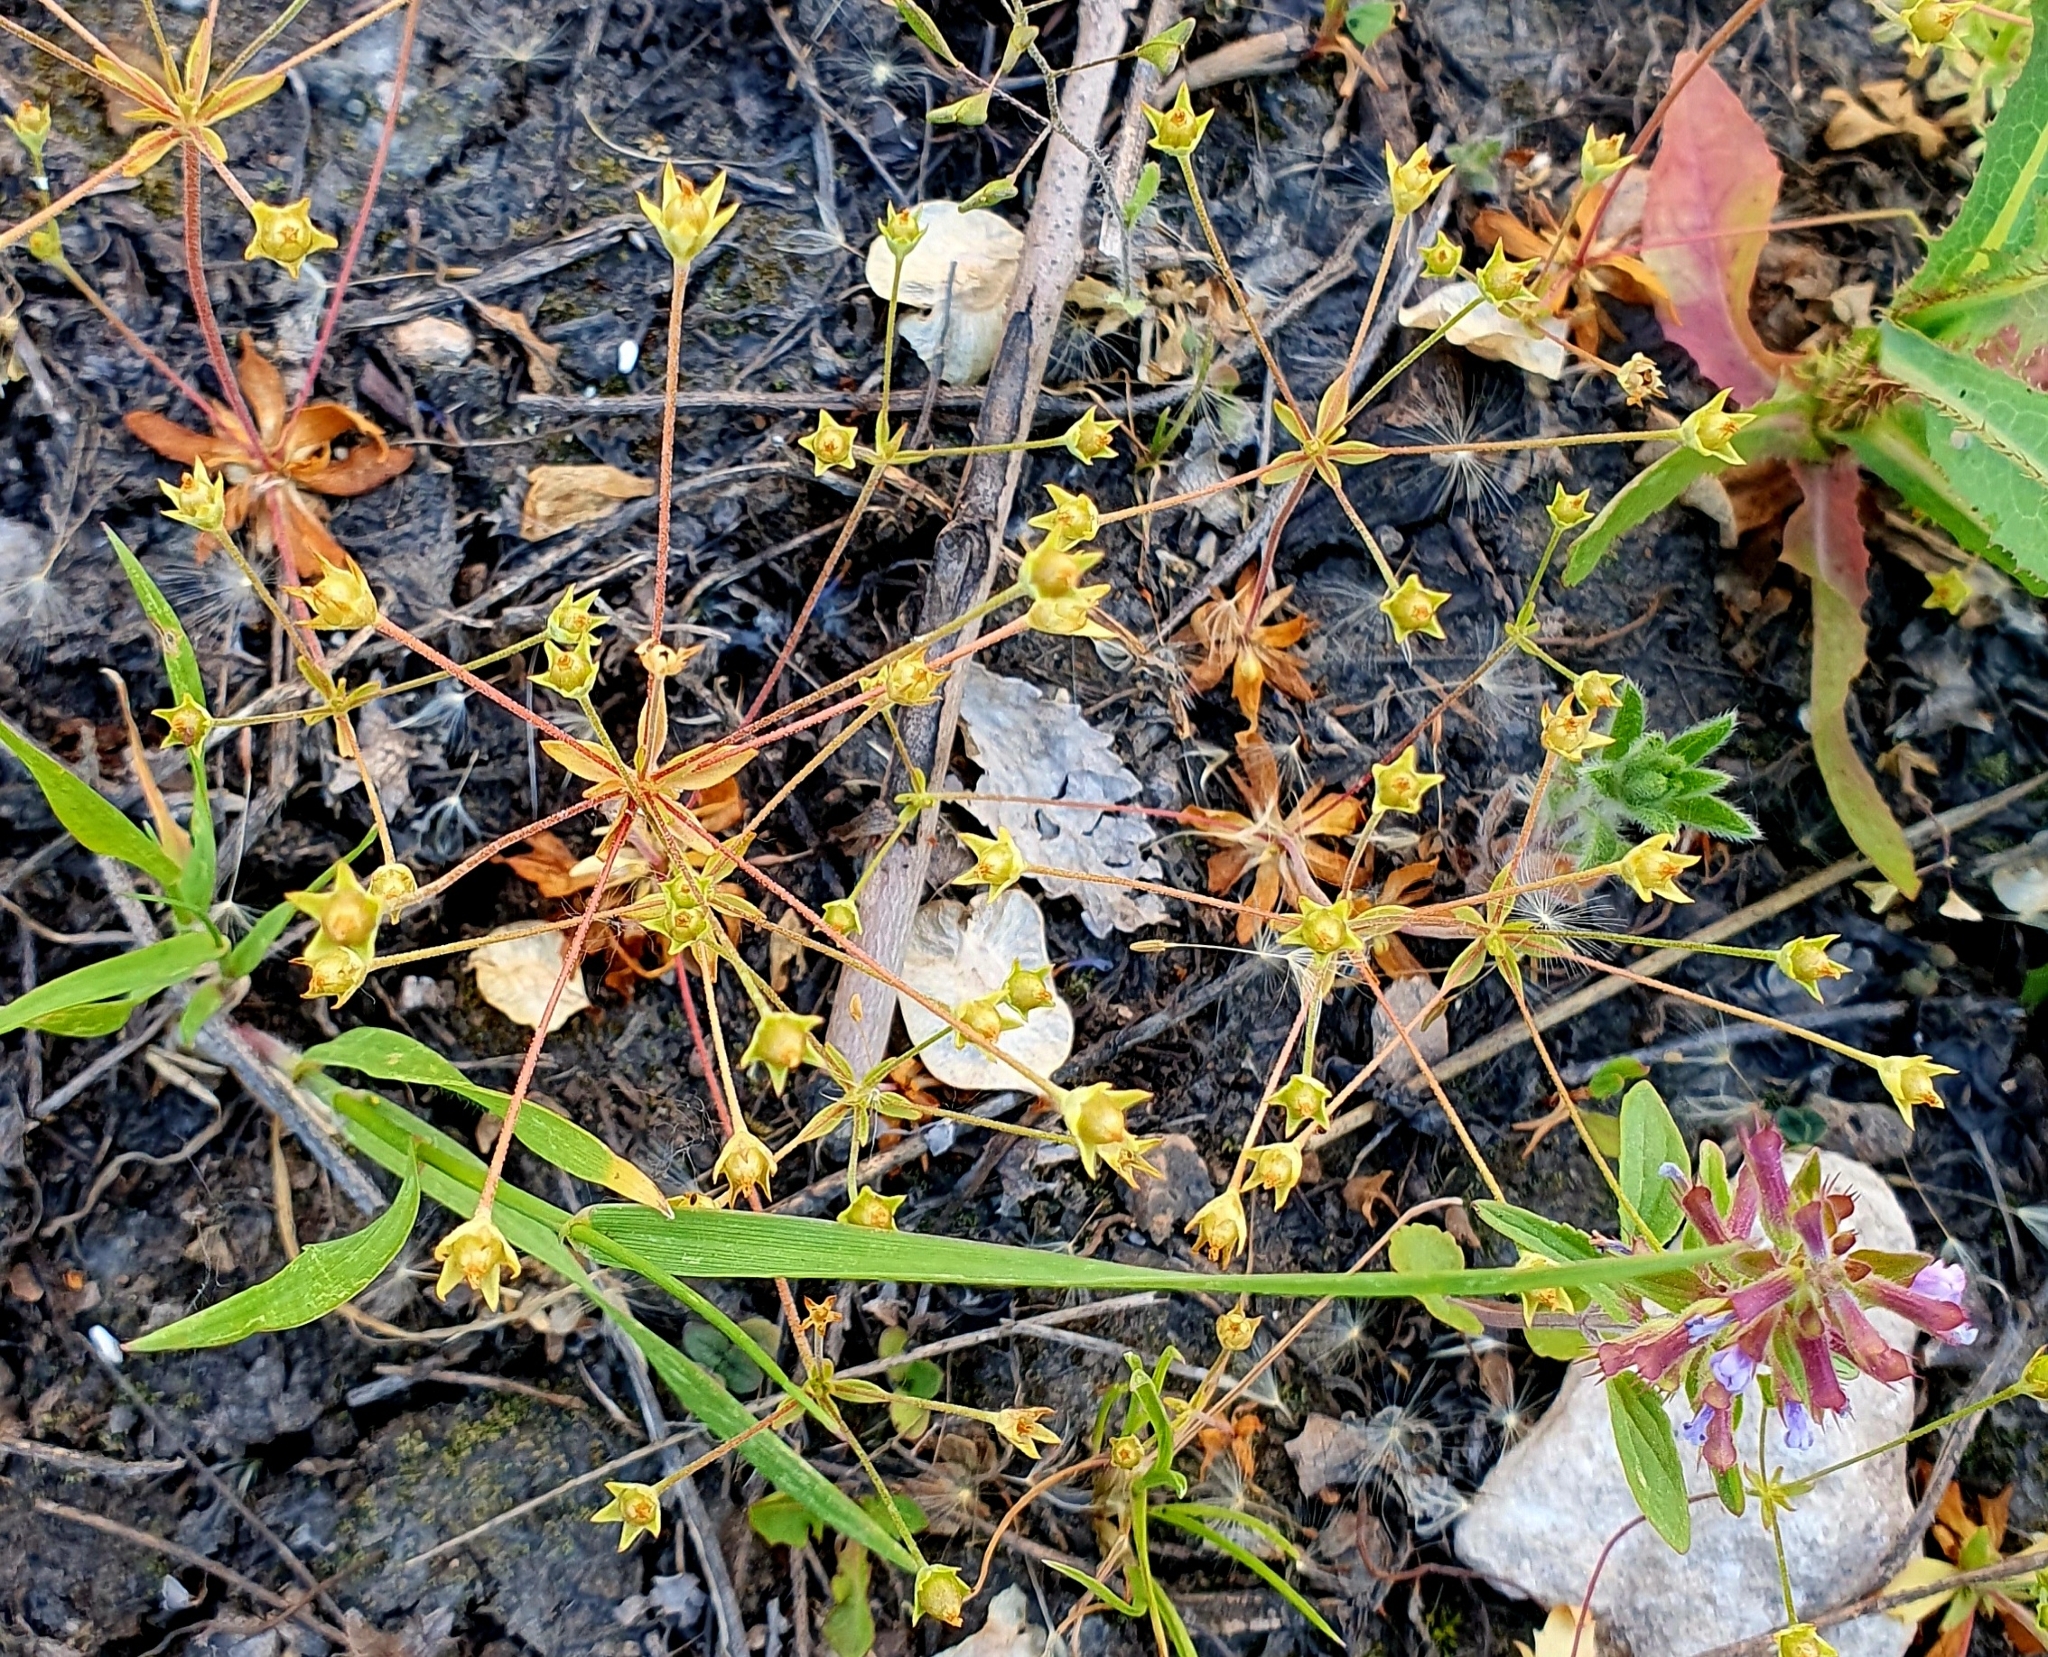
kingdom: Plantae
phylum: Tracheophyta
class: Magnoliopsida
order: Ericales
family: Primulaceae
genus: Androsace
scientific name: Androsace elongata
